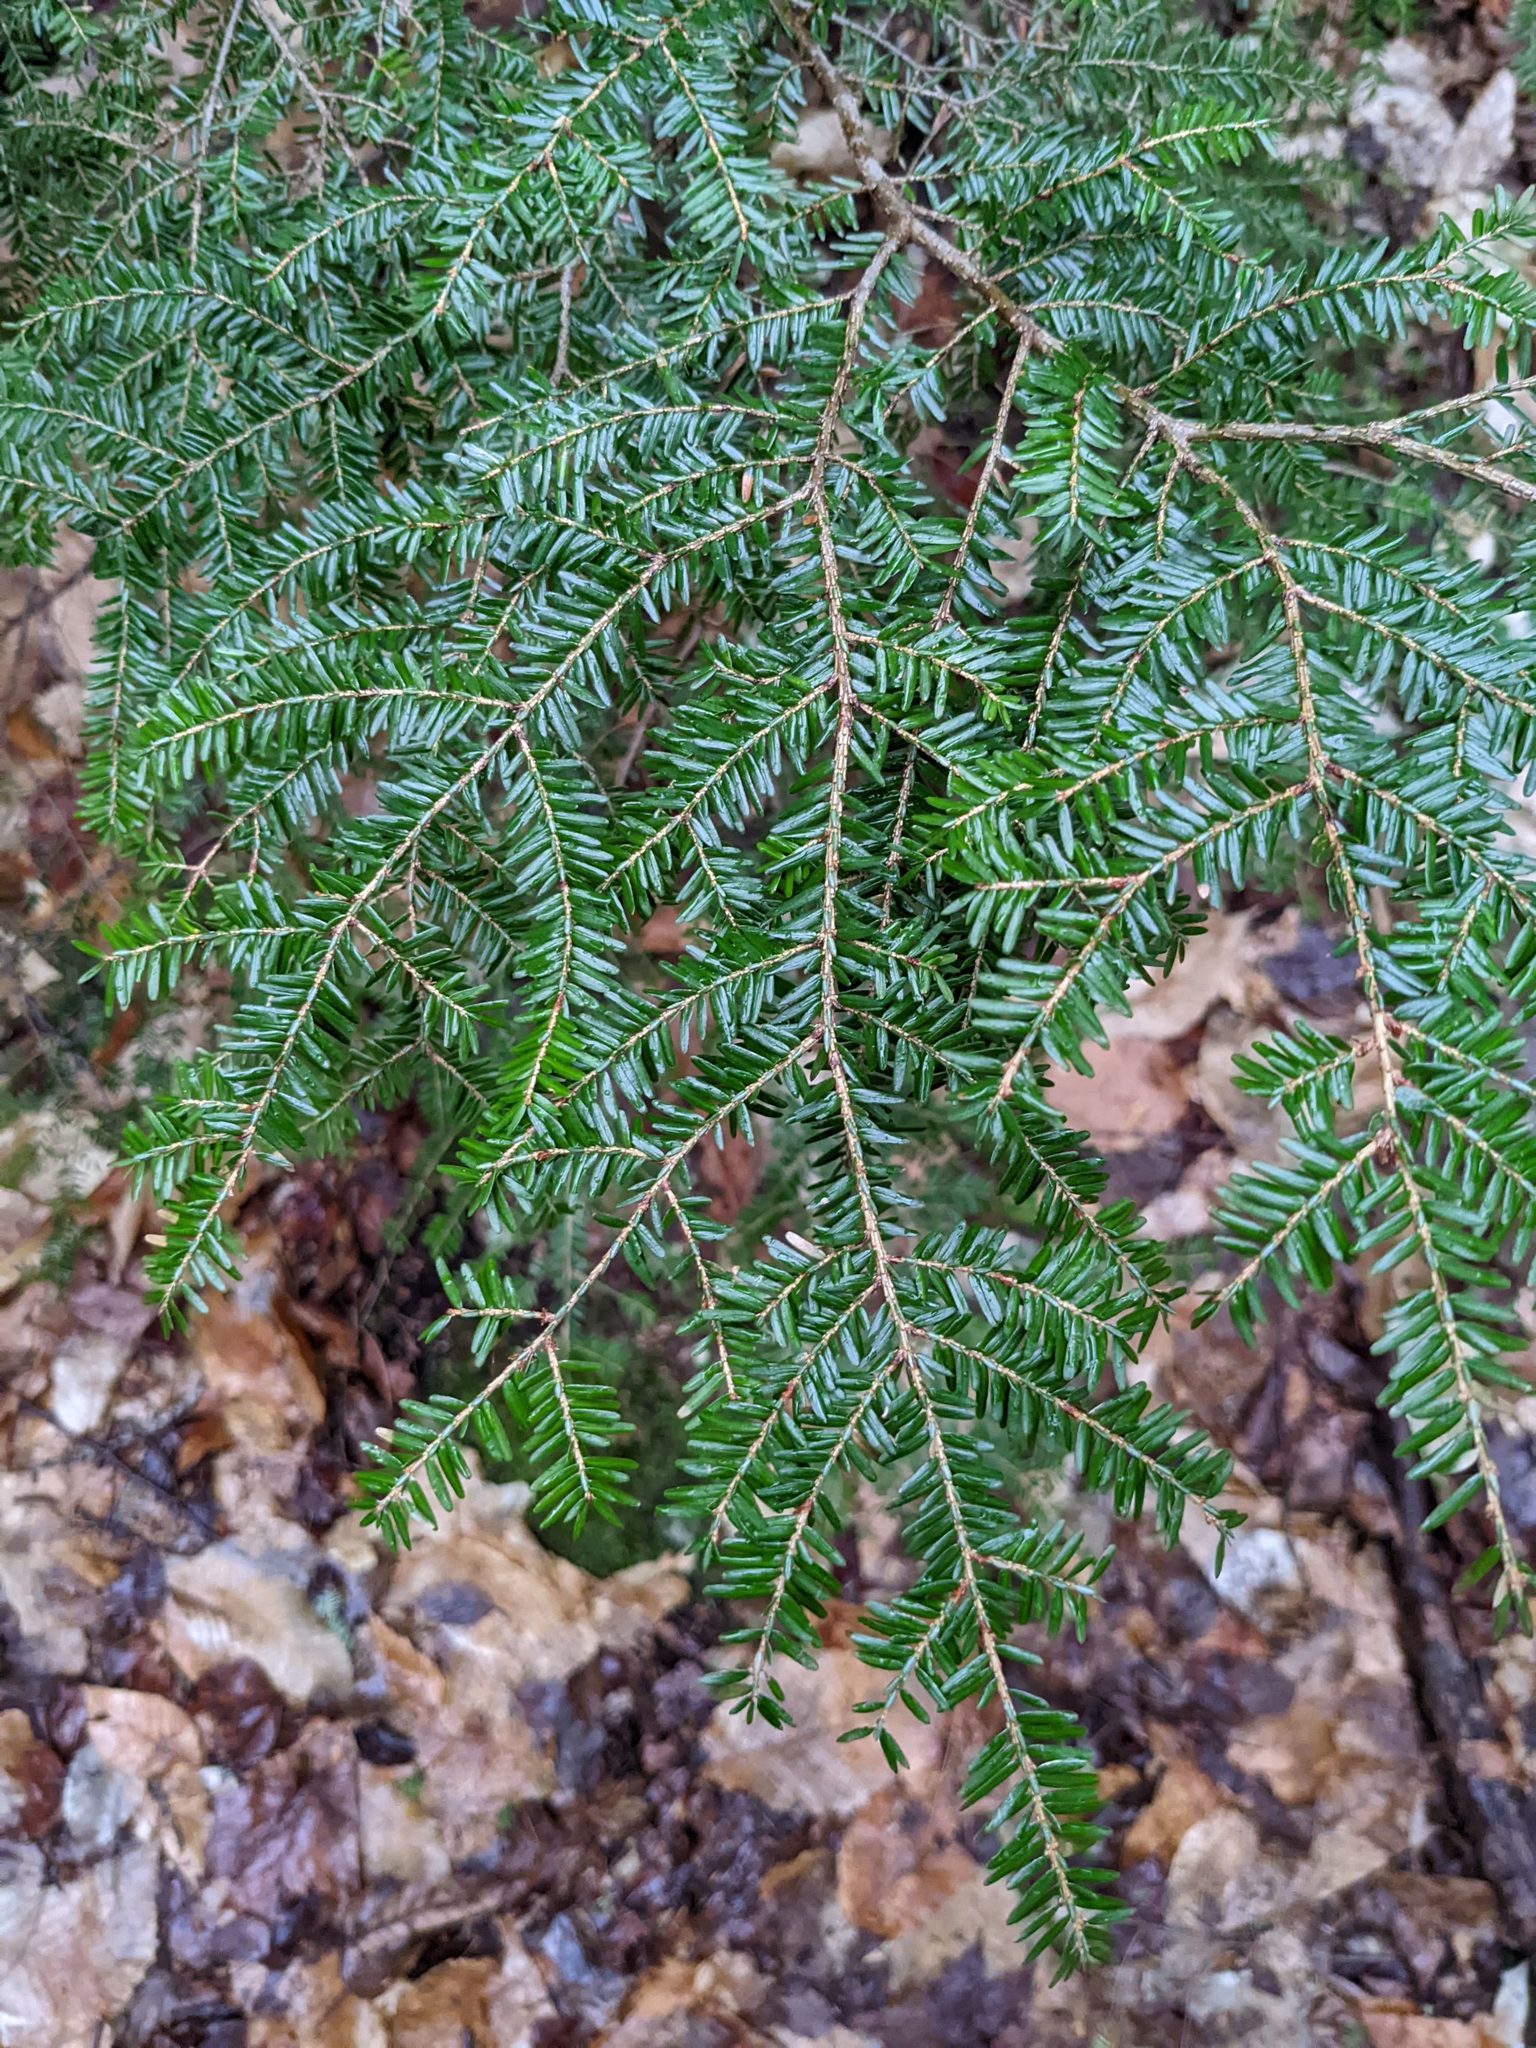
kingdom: Plantae
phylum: Tracheophyta
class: Pinopsida
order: Pinales
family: Pinaceae
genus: Tsuga
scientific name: Tsuga canadensis
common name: Eastern hemlock
